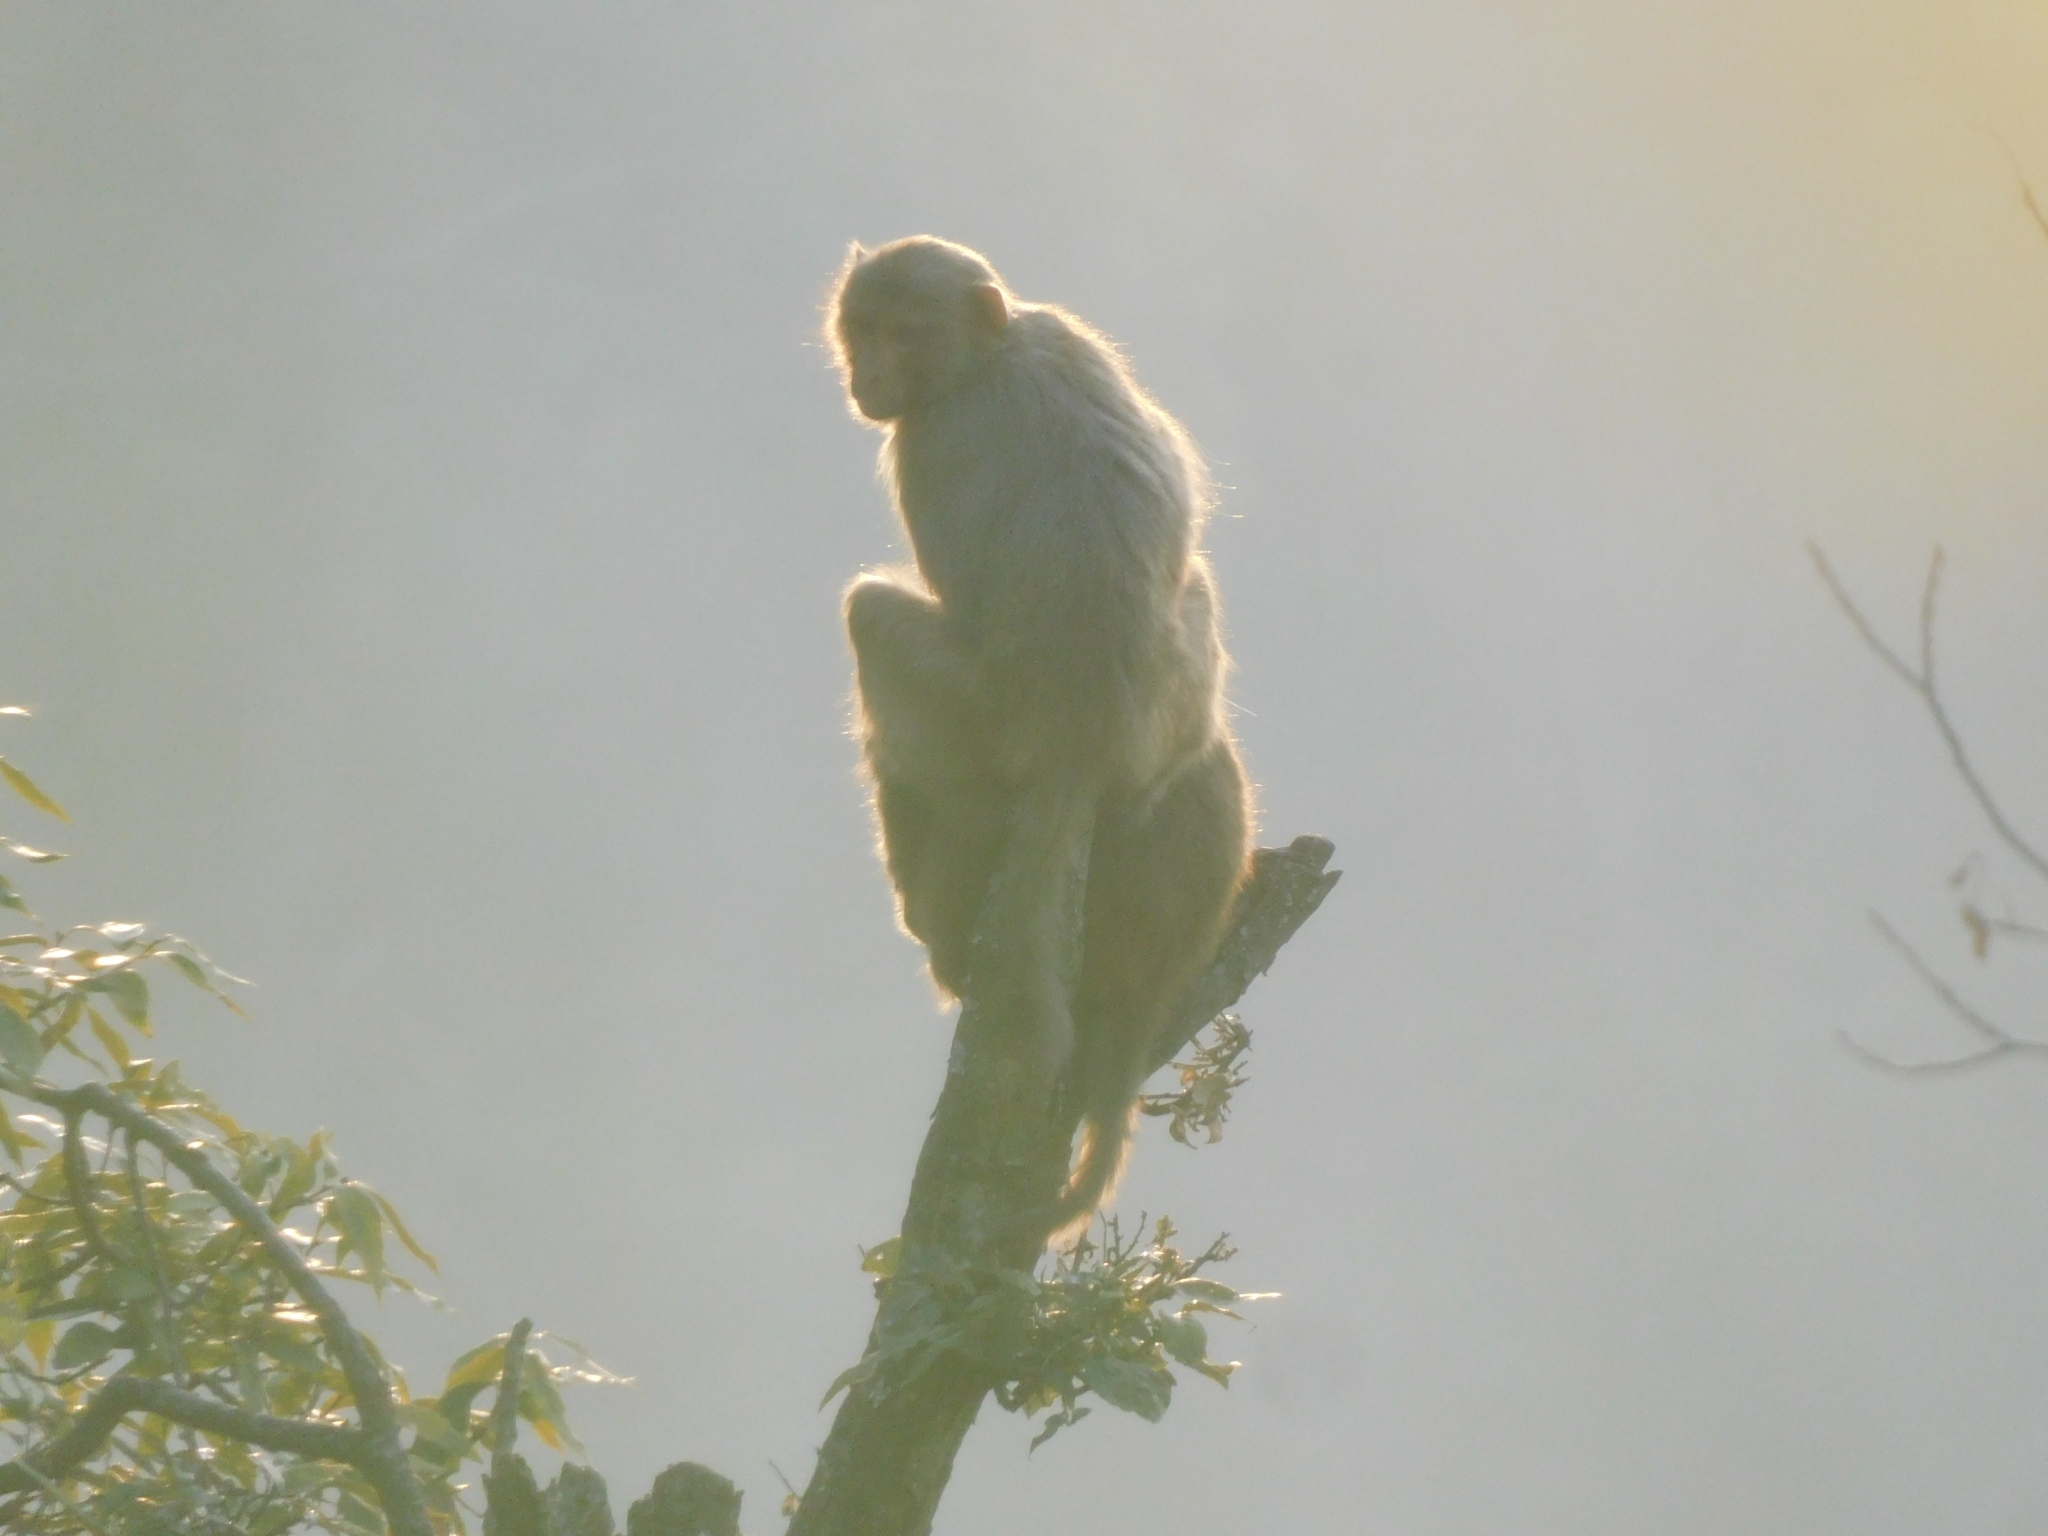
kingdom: Animalia
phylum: Chordata
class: Mammalia
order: Primates
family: Cercopithecidae
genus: Macaca
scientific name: Macaca mulatta
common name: Rhesus monkey
